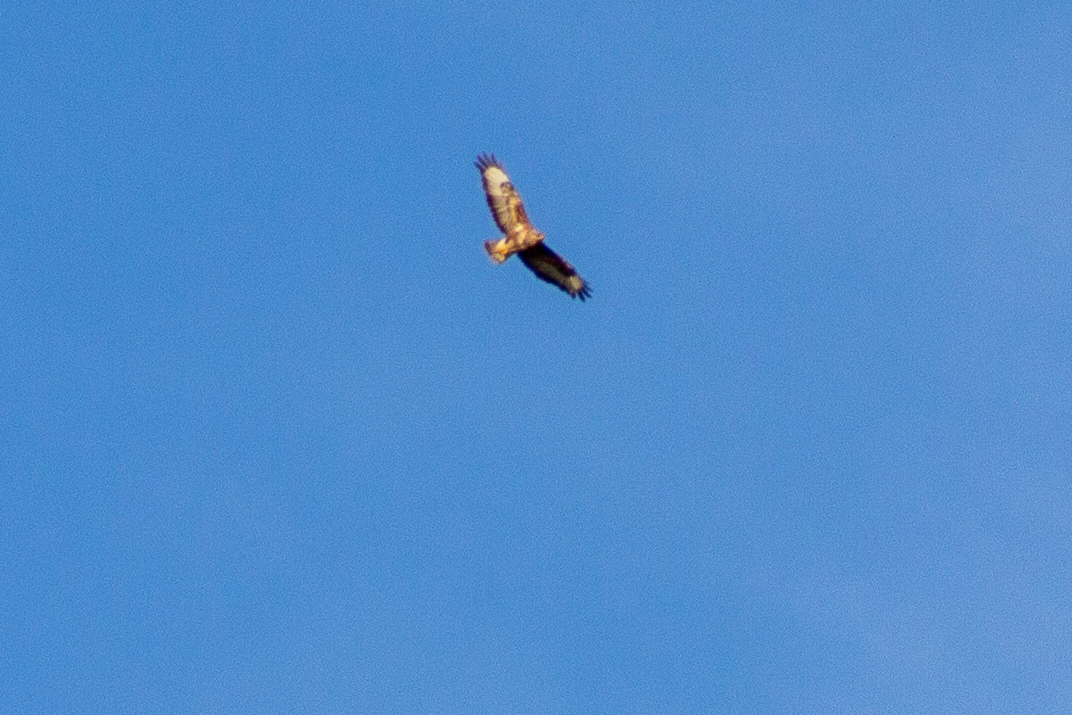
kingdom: Animalia
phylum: Chordata
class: Aves
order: Accipitriformes
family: Accipitridae
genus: Buteo
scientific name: Buteo buteo
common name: Common buzzard
